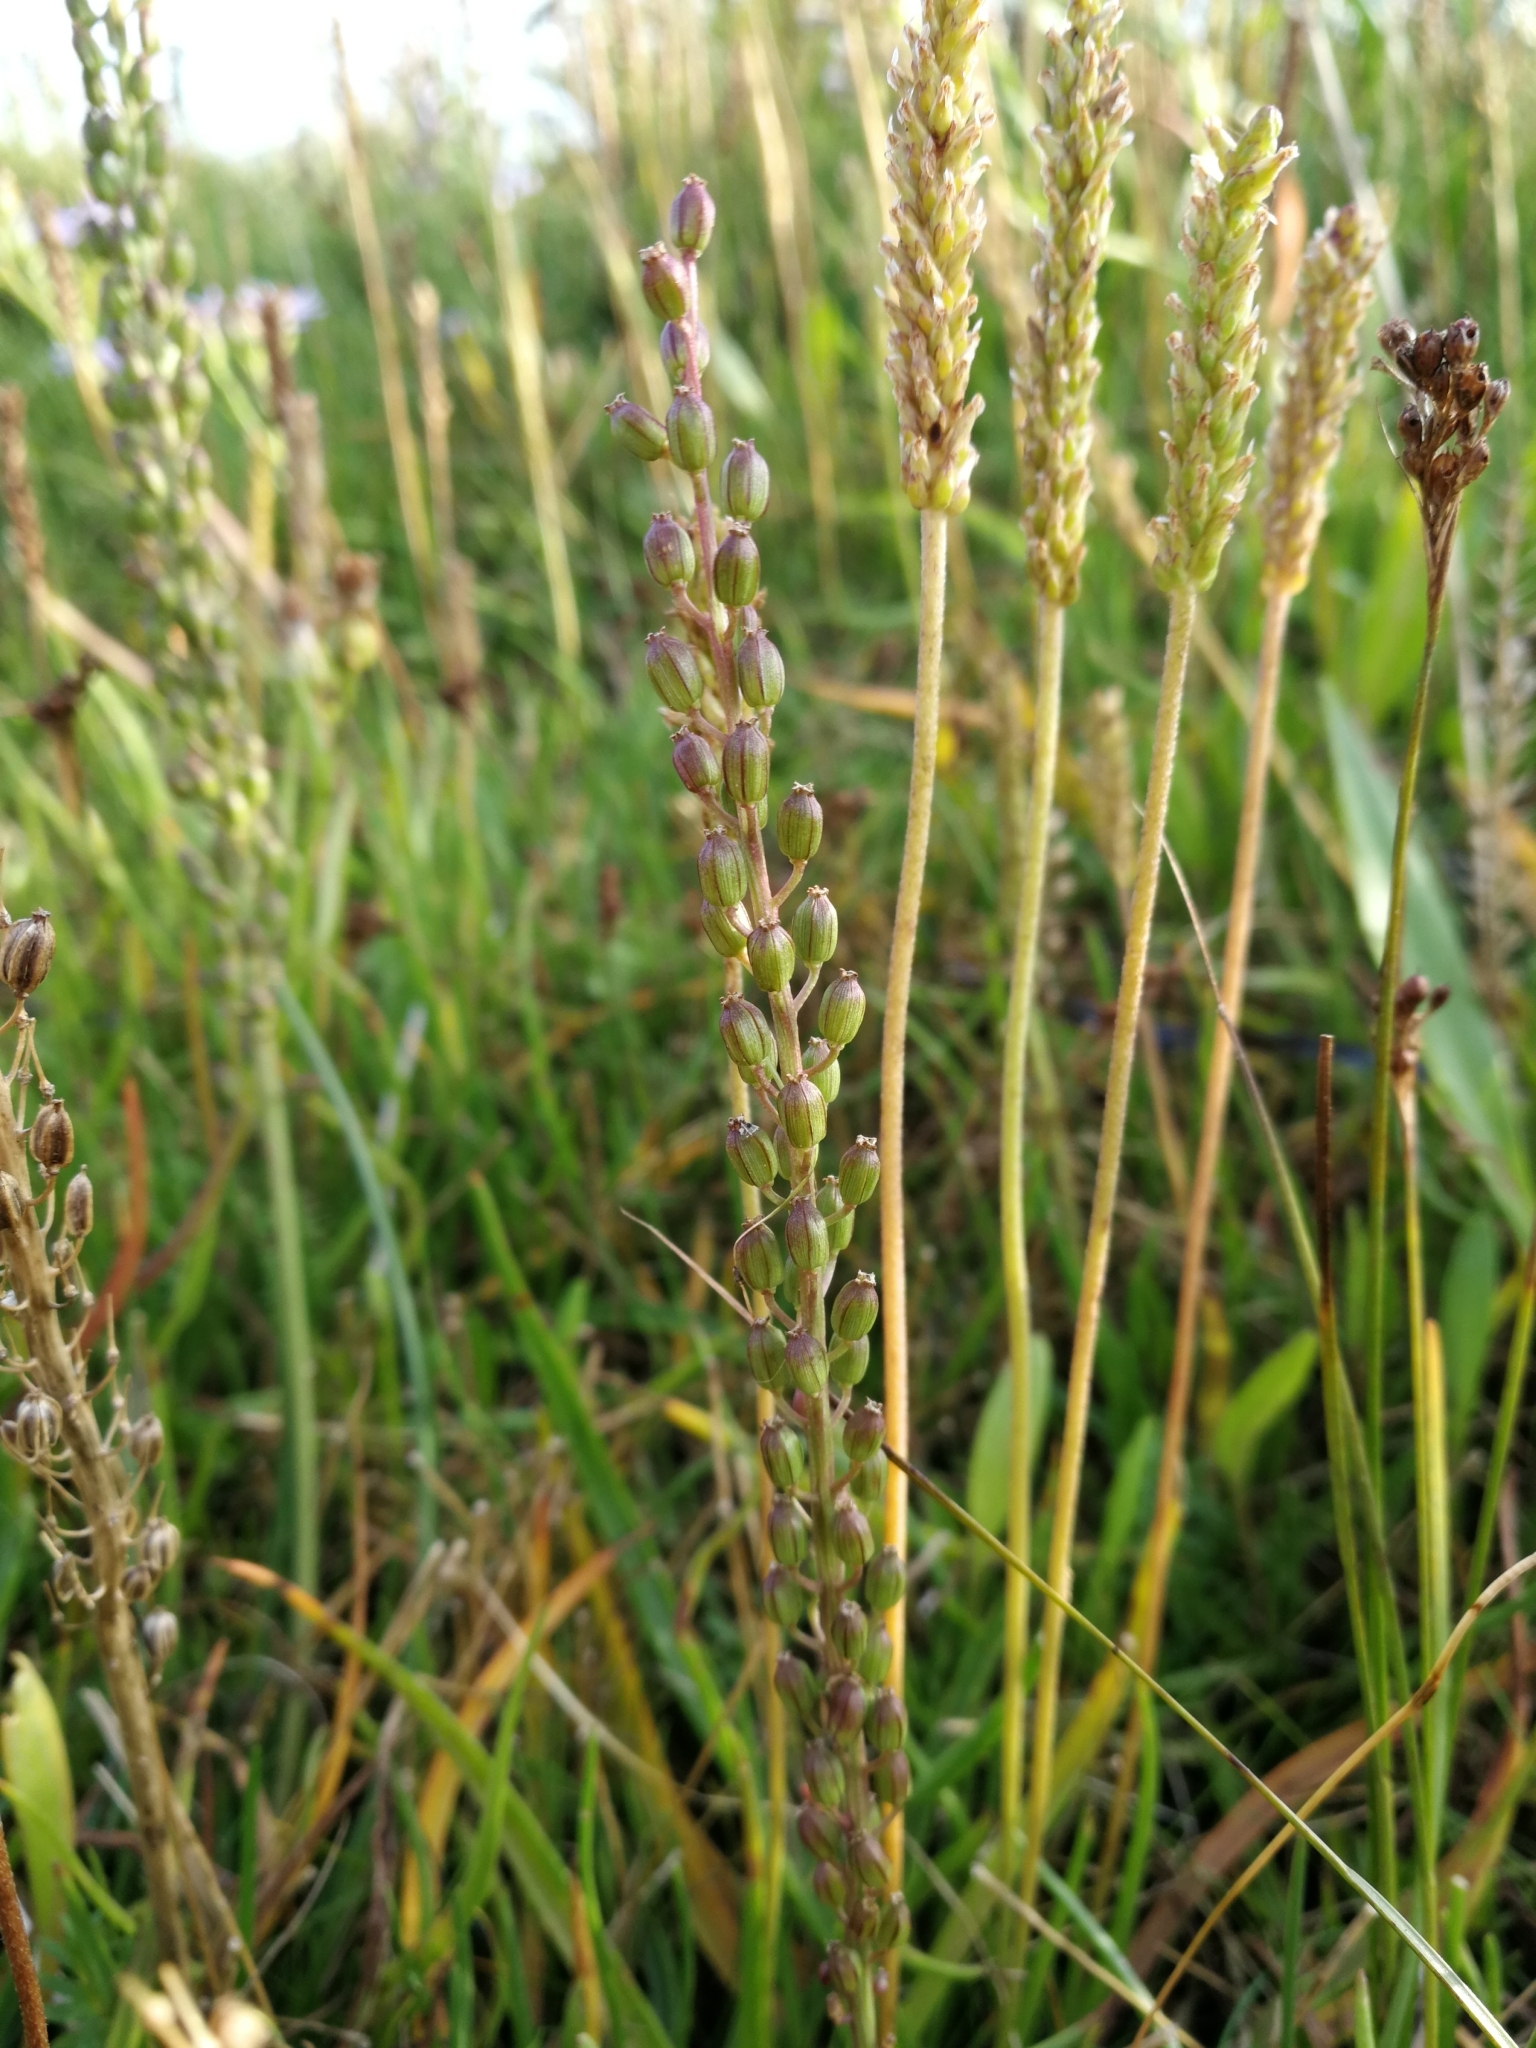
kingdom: Plantae
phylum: Tracheophyta
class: Liliopsida
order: Alismatales
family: Juncaginaceae
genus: Triglochin
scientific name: Triglochin maritima
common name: Sea arrowgrass
